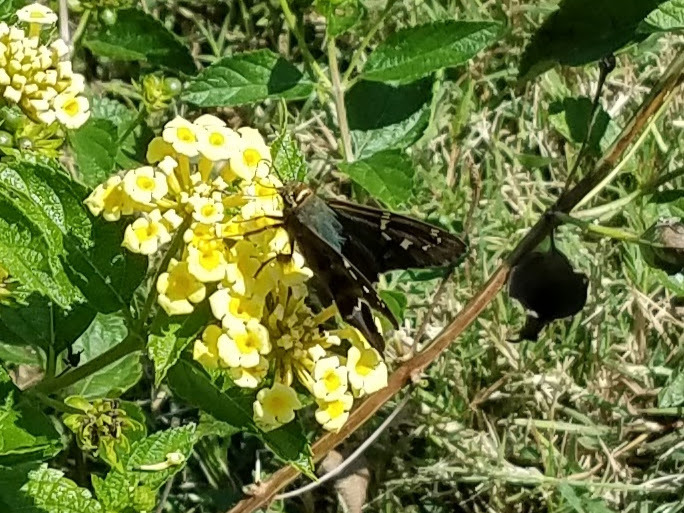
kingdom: Animalia
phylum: Arthropoda
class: Insecta
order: Lepidoptera
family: Hesperiidae
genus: Urbanus
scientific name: Urbanus proteus
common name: Long-tailed skipper
